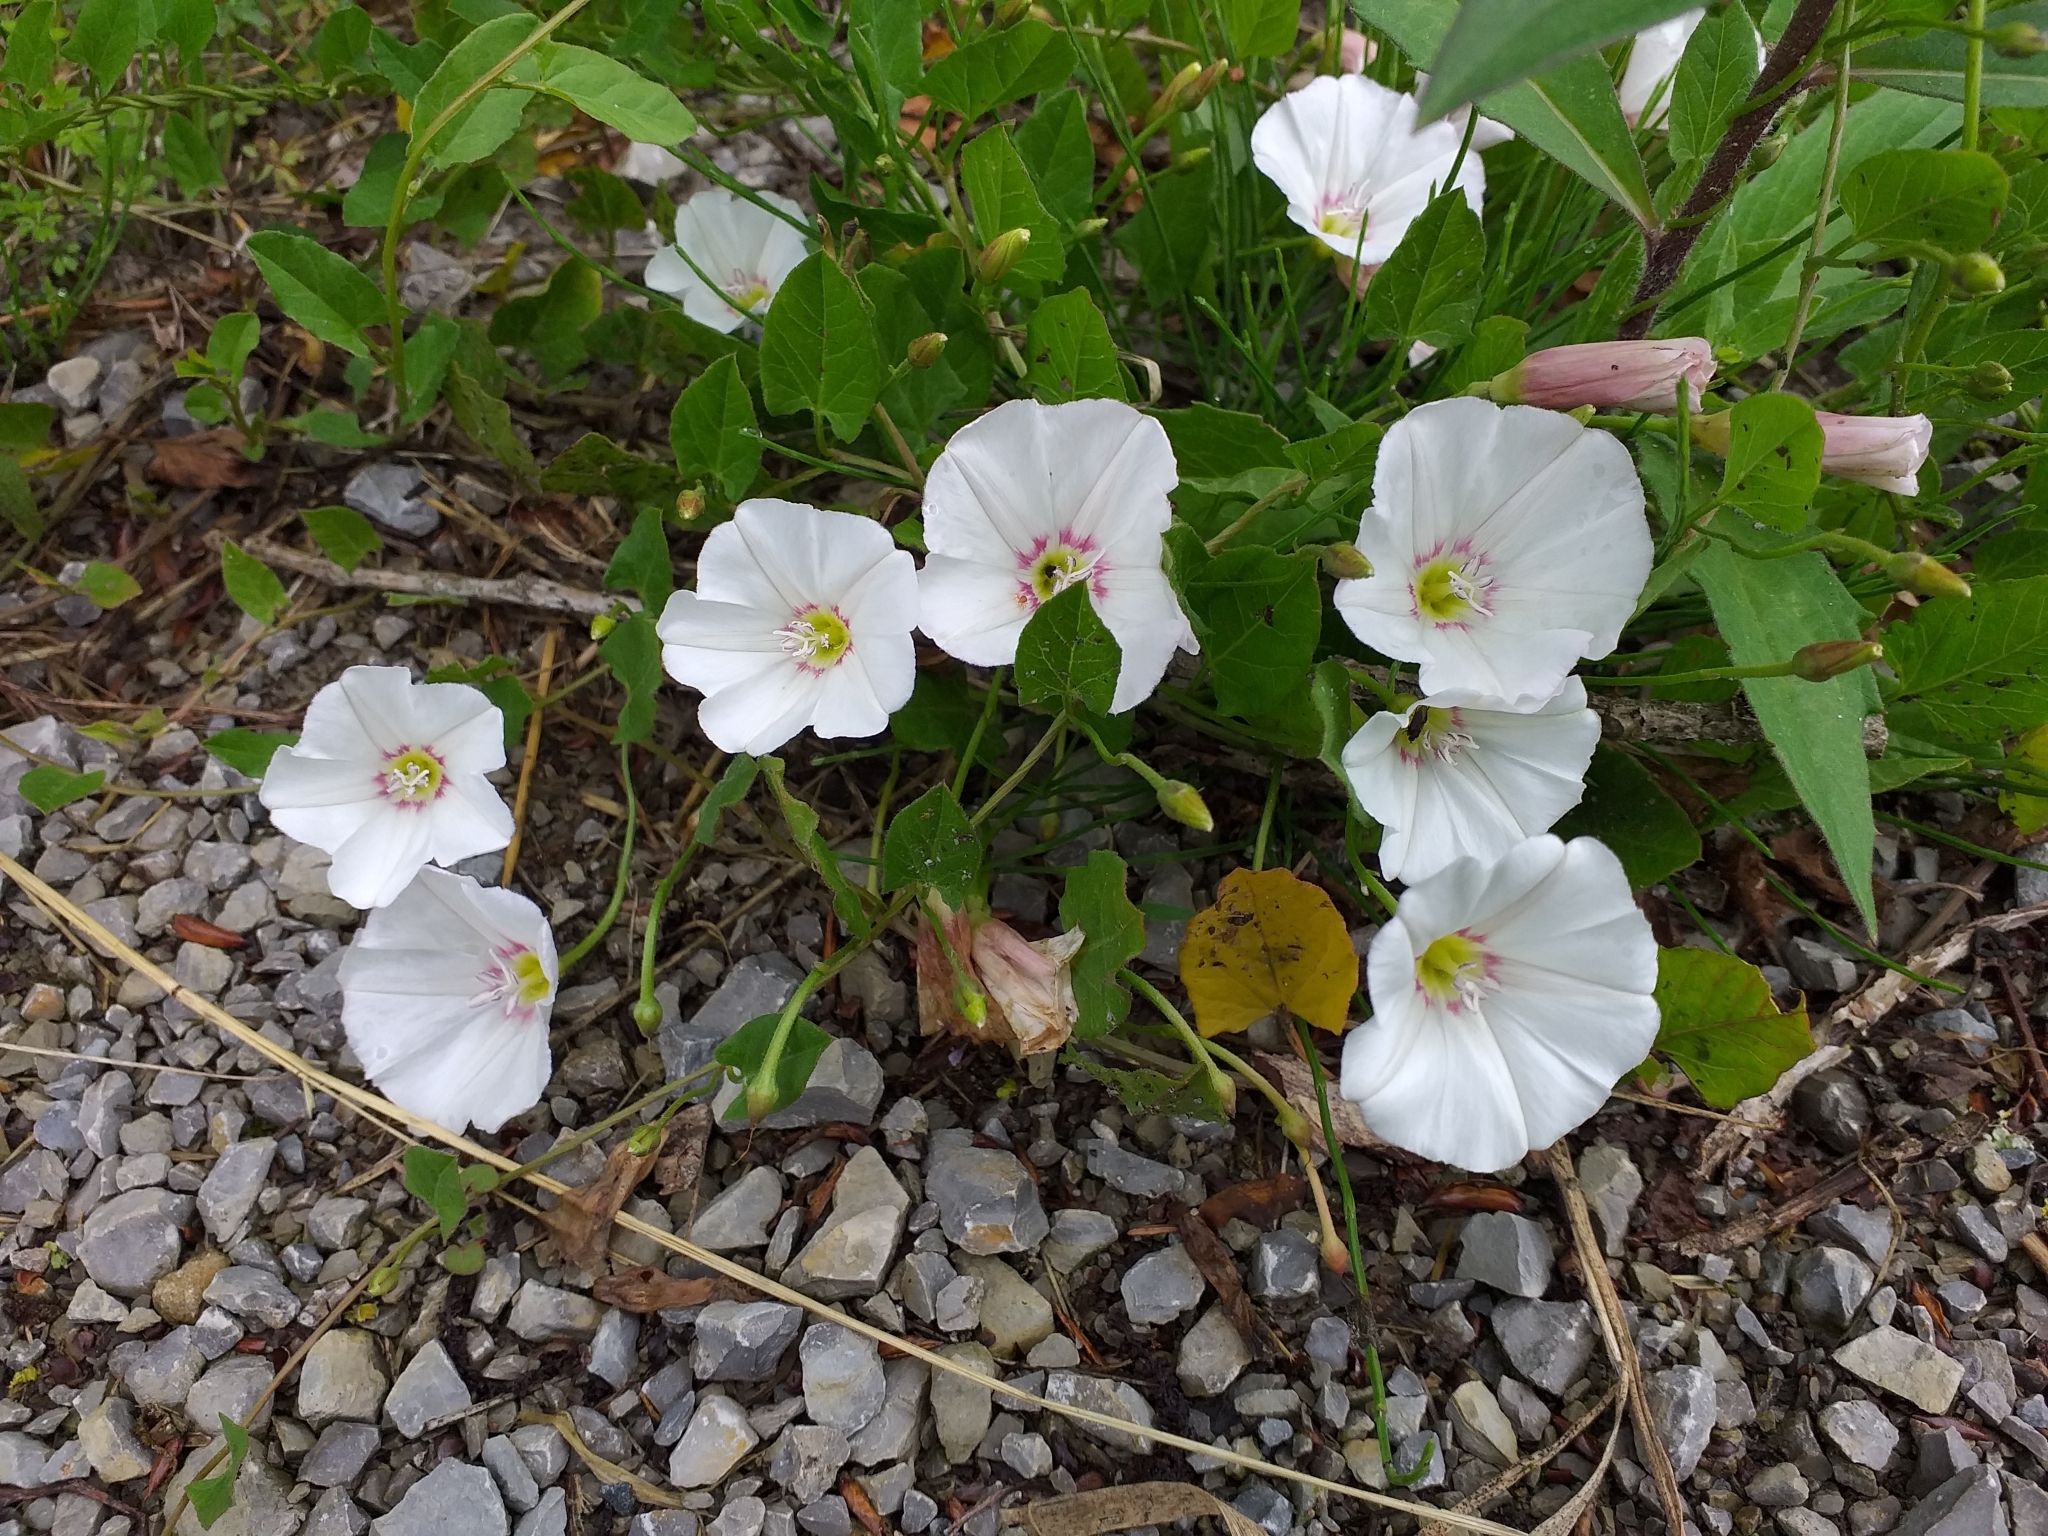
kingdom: Plantae
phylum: Tracheophyta
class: Magnoliopsida
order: Solanales
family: Convolvulaceae
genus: Convolvulus
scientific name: Convolvulus arvensis
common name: Field bindweed
